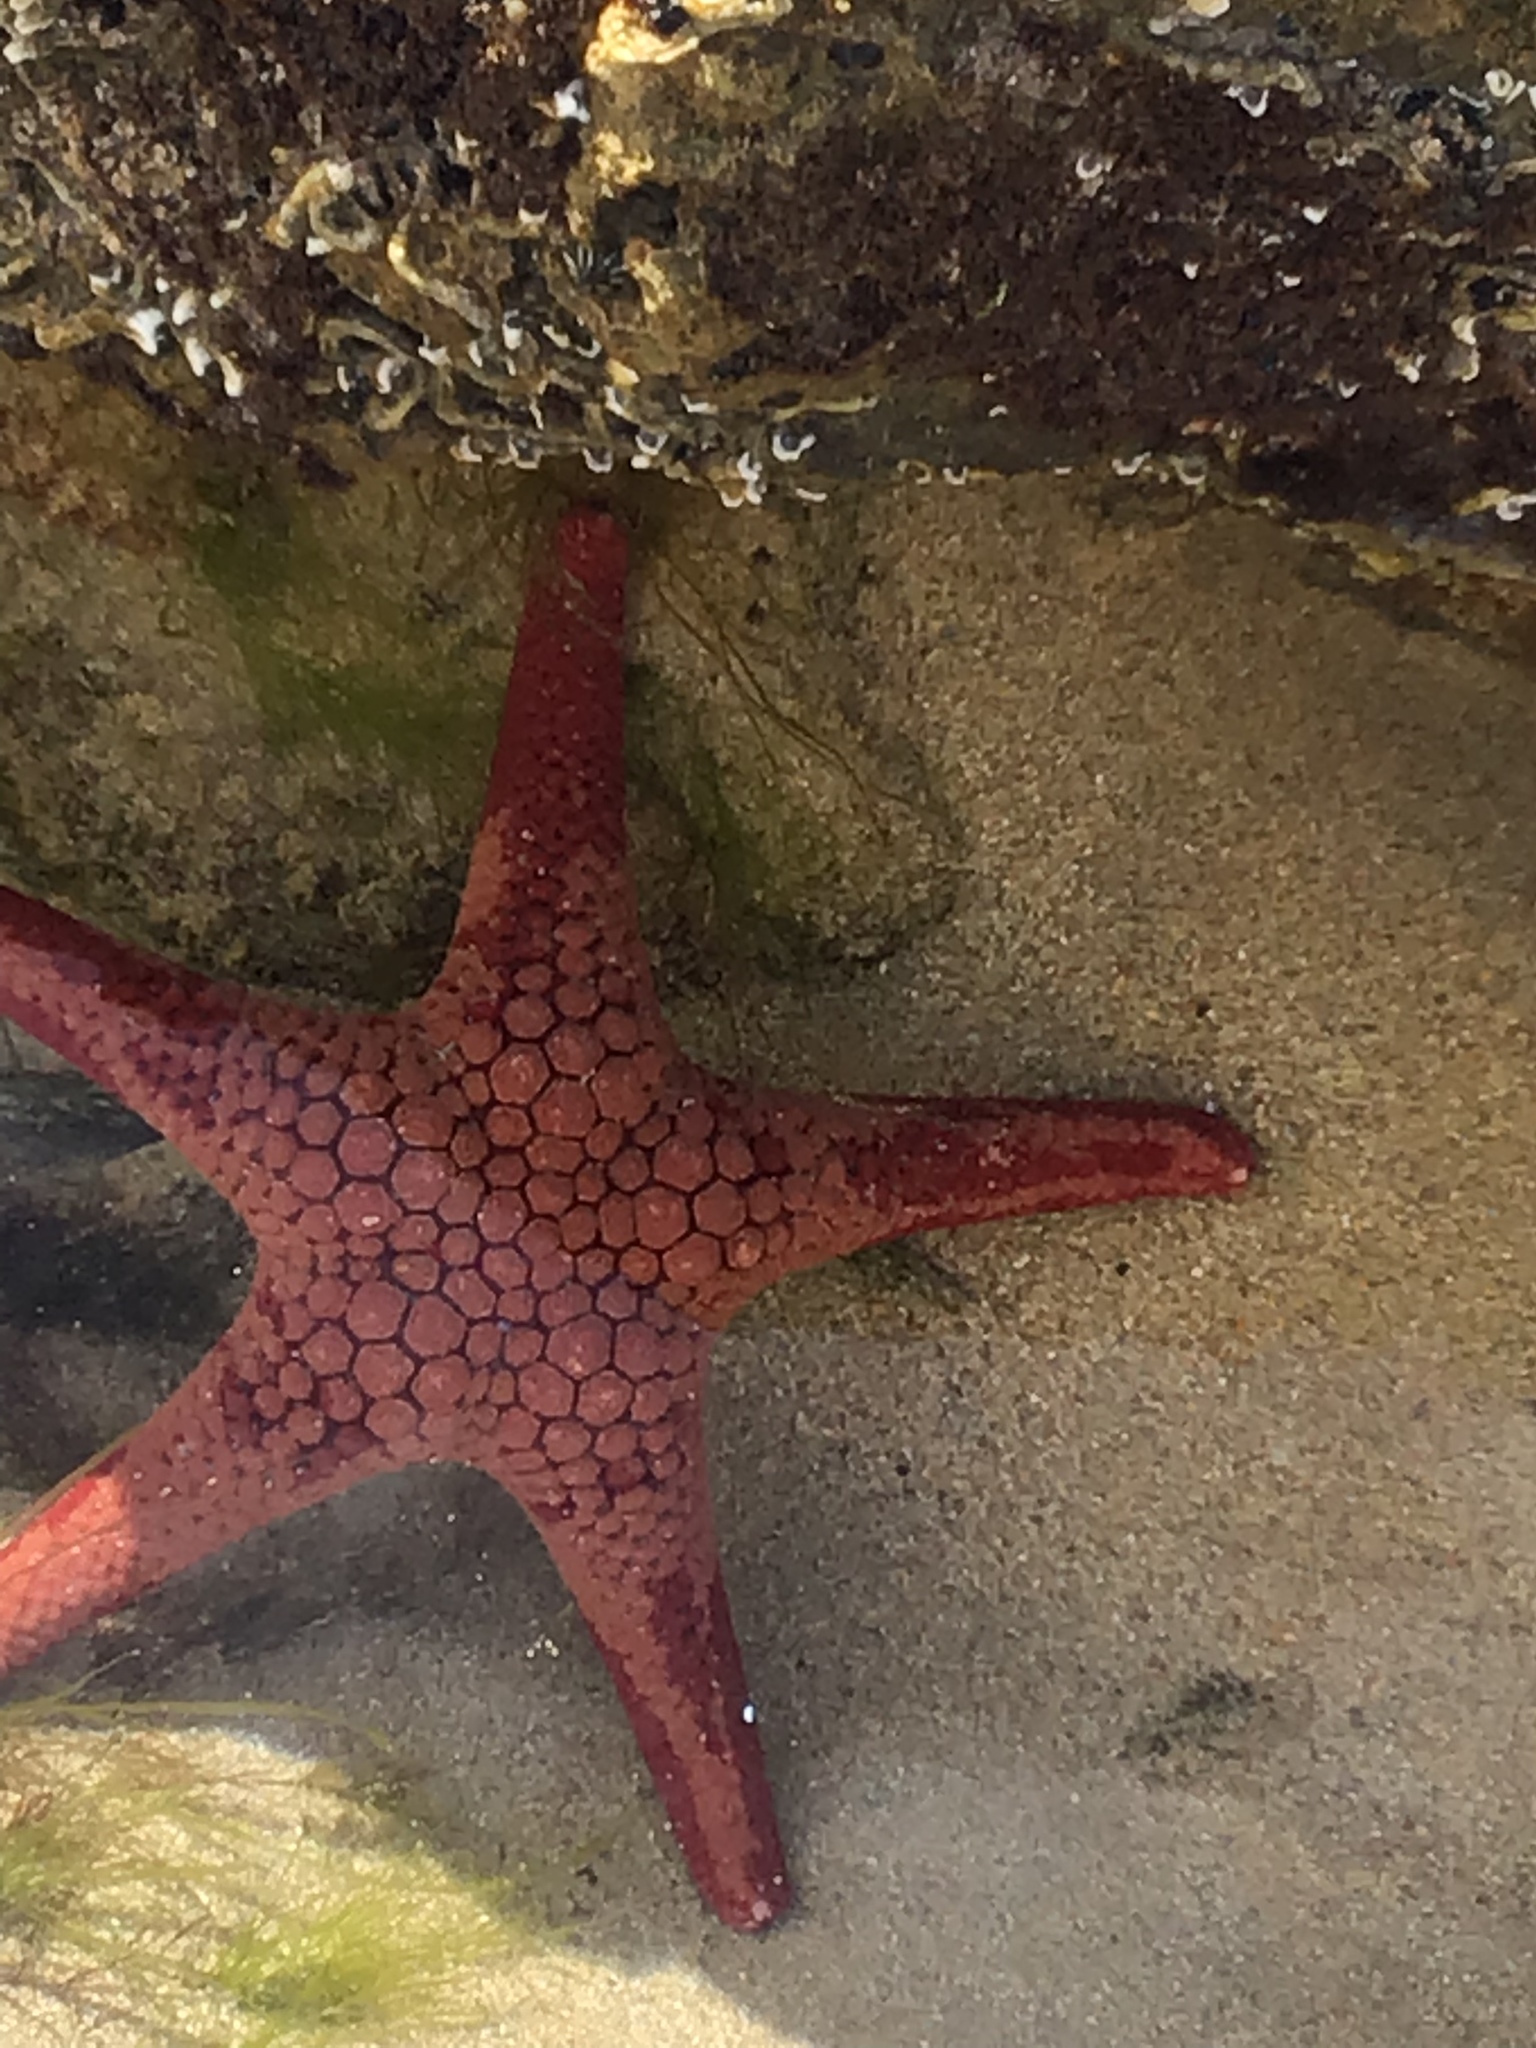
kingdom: Animalia
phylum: Echinodermata
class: Asteroidea
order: Valvatida
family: Goniasteridae
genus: Nectria
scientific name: Nectria ocellata
